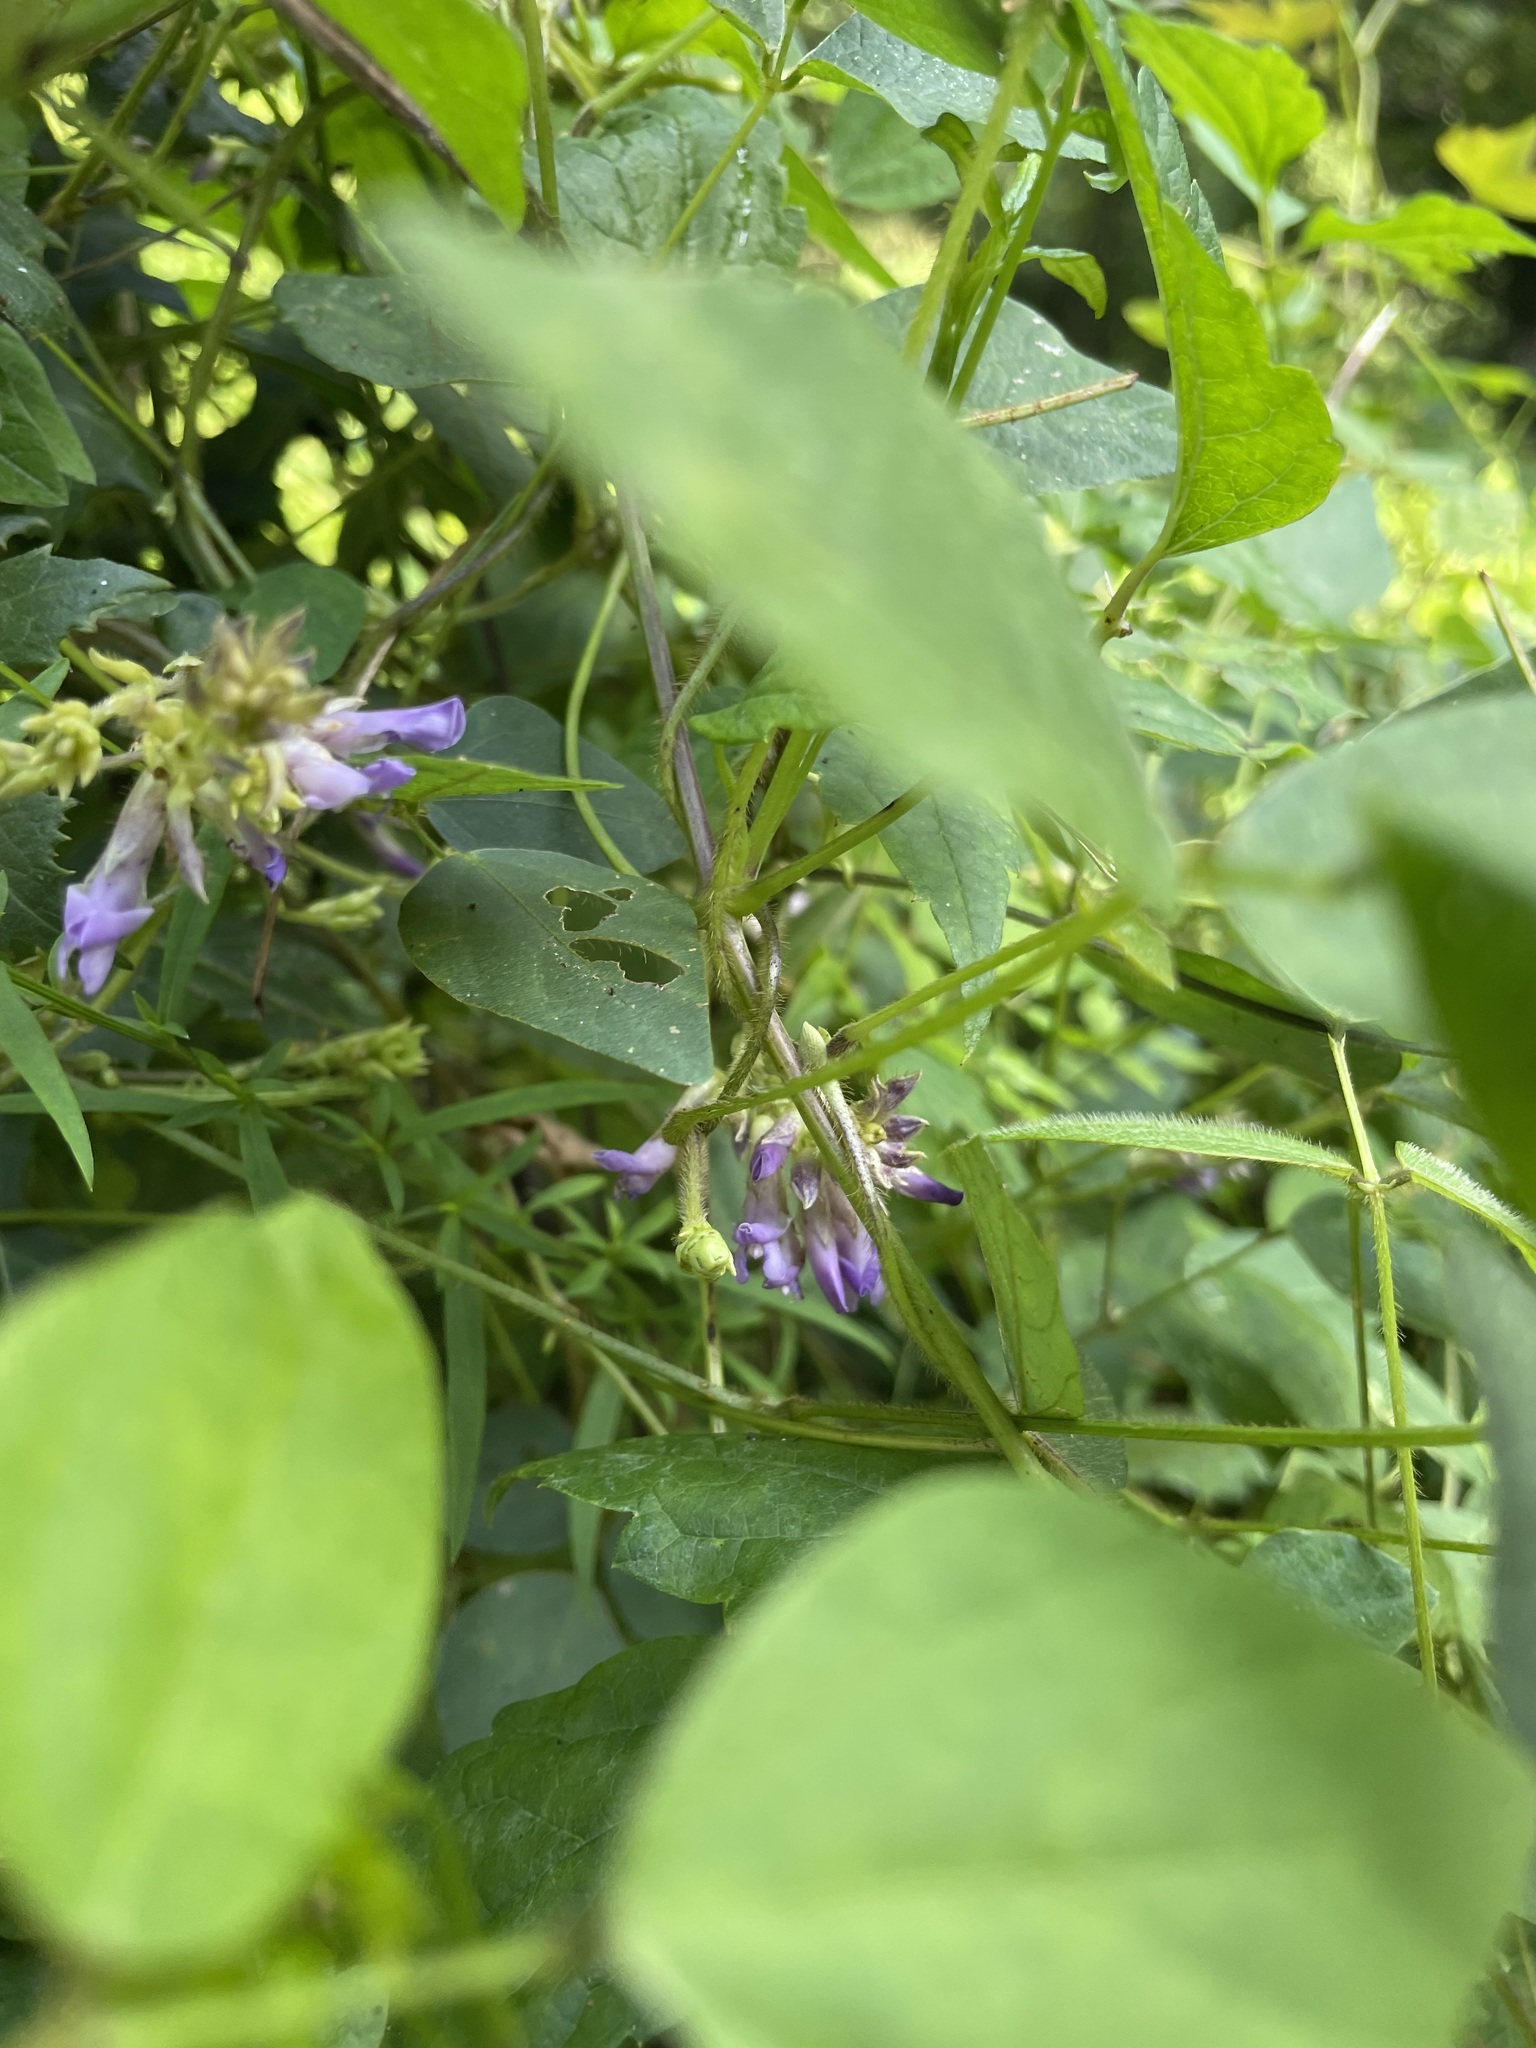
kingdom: Plantae
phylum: Tracheophyta
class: Magnoliopsida
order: Fabales
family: Fabaceae
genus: Amphicarpaea
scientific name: Amphicarpaea bracteata
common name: American hog peanut
